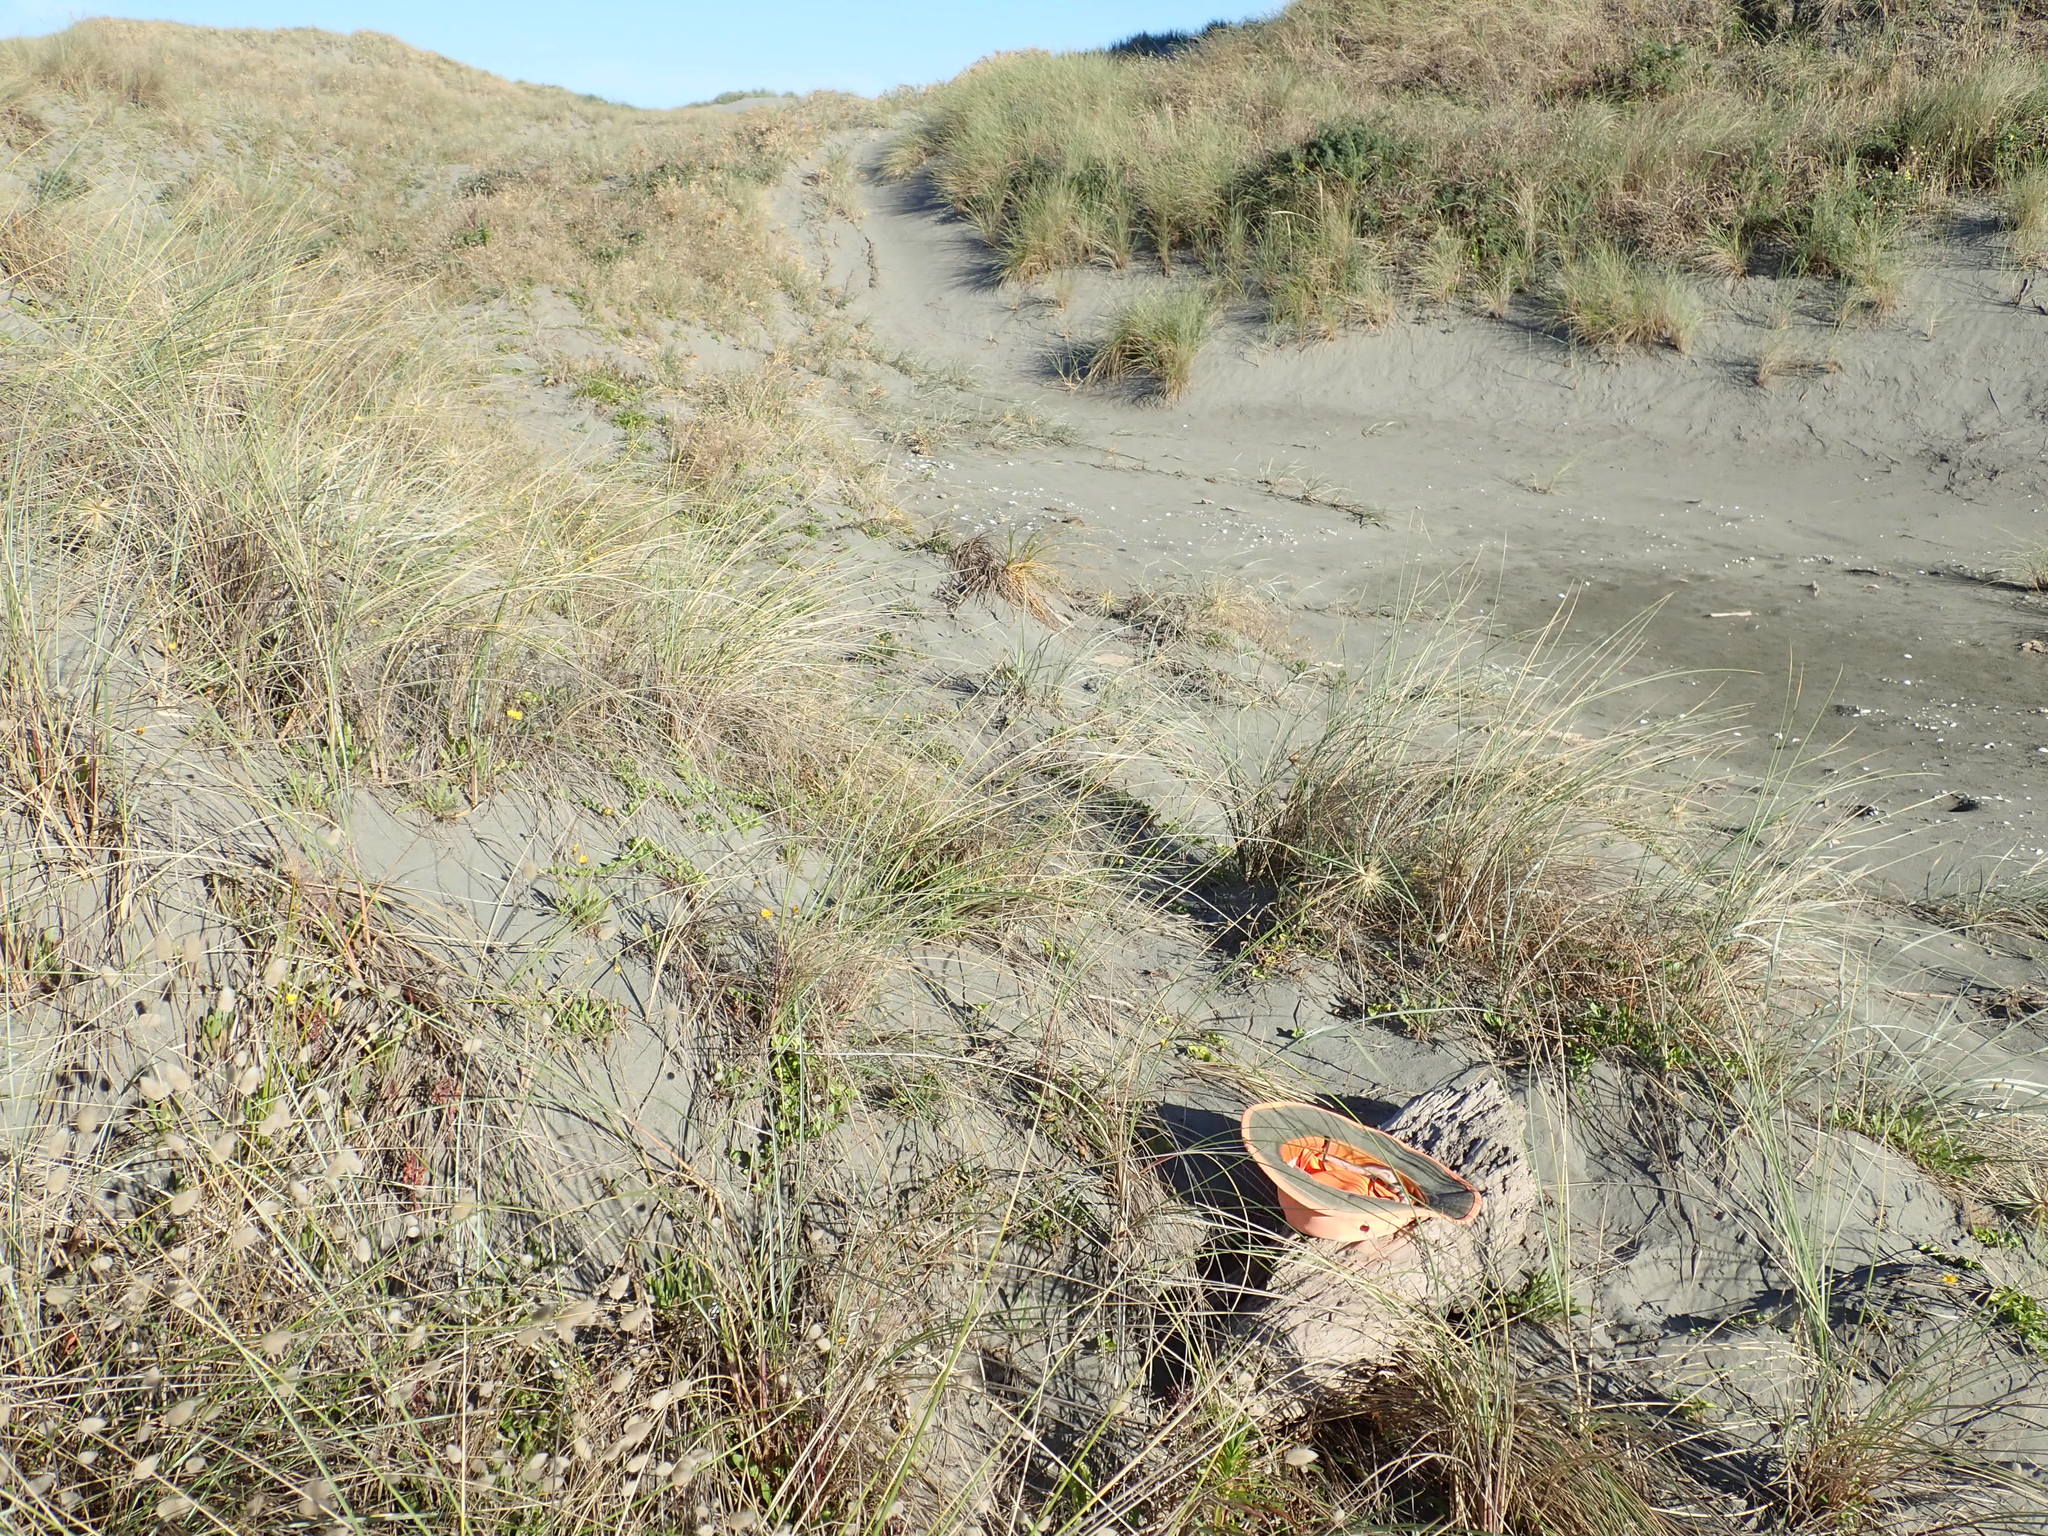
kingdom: Animalia
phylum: Arthropoda
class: Malacostraca
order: Isopoda
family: Porcellionidae
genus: Porcellio
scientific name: Porcellio scaber
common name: Common rough woodlouse
